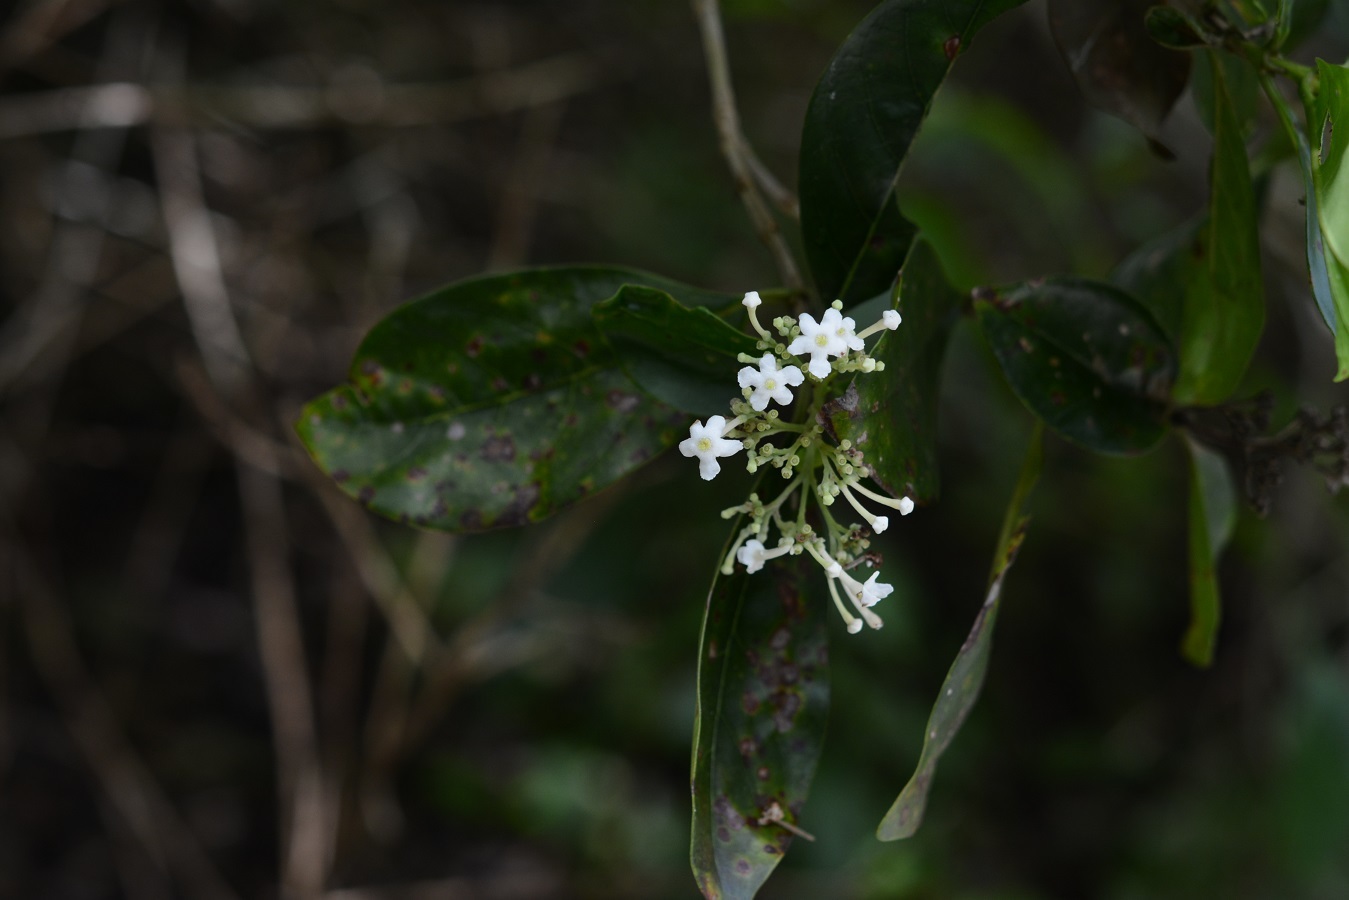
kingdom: Plantae
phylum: Tracheophyta
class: Magnoliopsida
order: Gentianales
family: Rubiaceae
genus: Rogiera
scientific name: Rogiera stenosiphon
